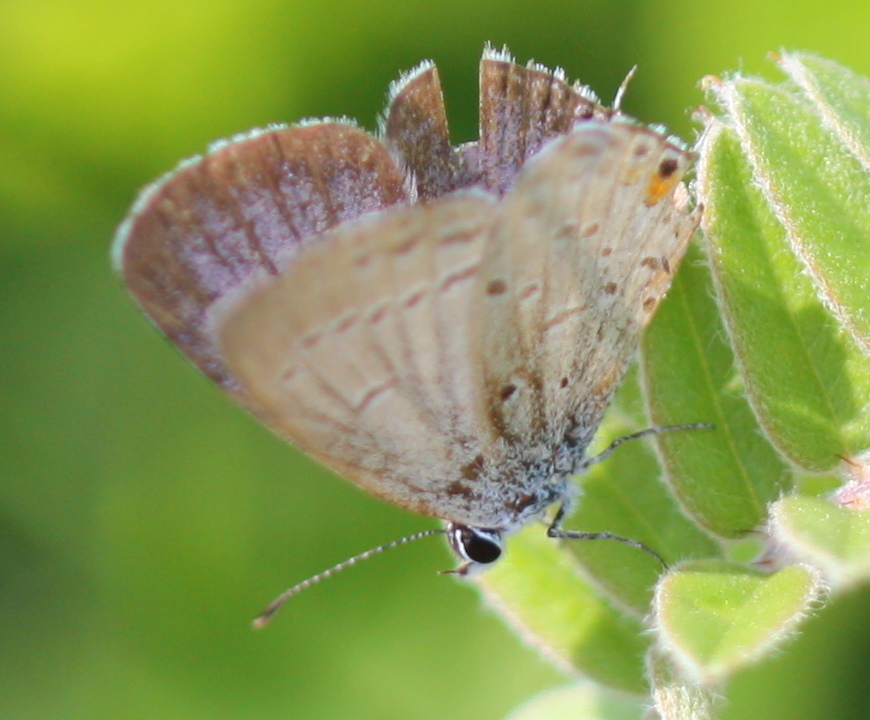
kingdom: Animalia
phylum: Arthropoda
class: Insecta
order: Lepidoptera
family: Lycaenidae
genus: Elkalyce
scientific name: Elkalyce comyntas
